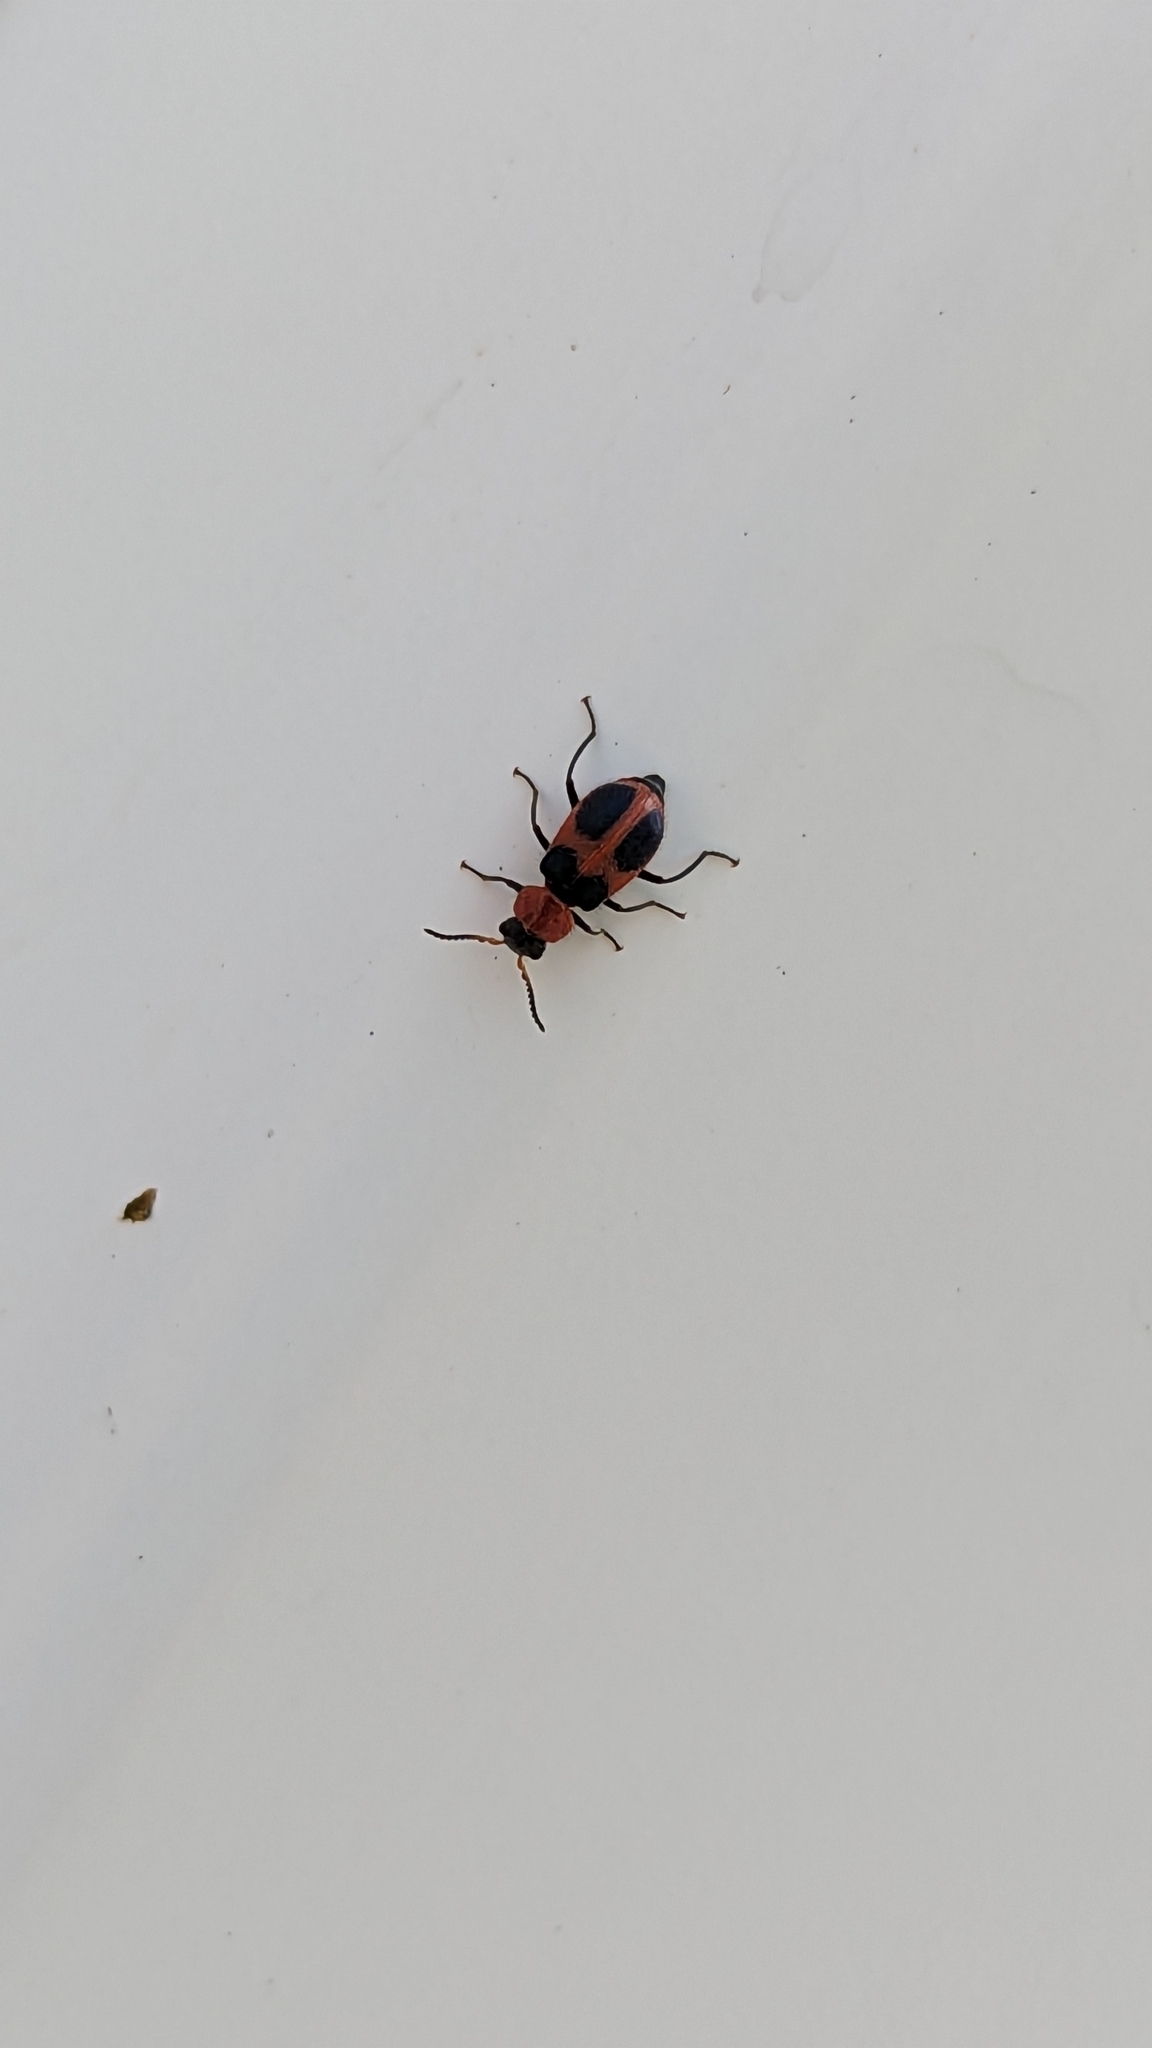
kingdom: Animalia
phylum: Arthropoda
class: Insecta
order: Coleoptera
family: Melyridae
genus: Collops
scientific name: Collops quadrimaculatus
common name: Four-spotted collops
